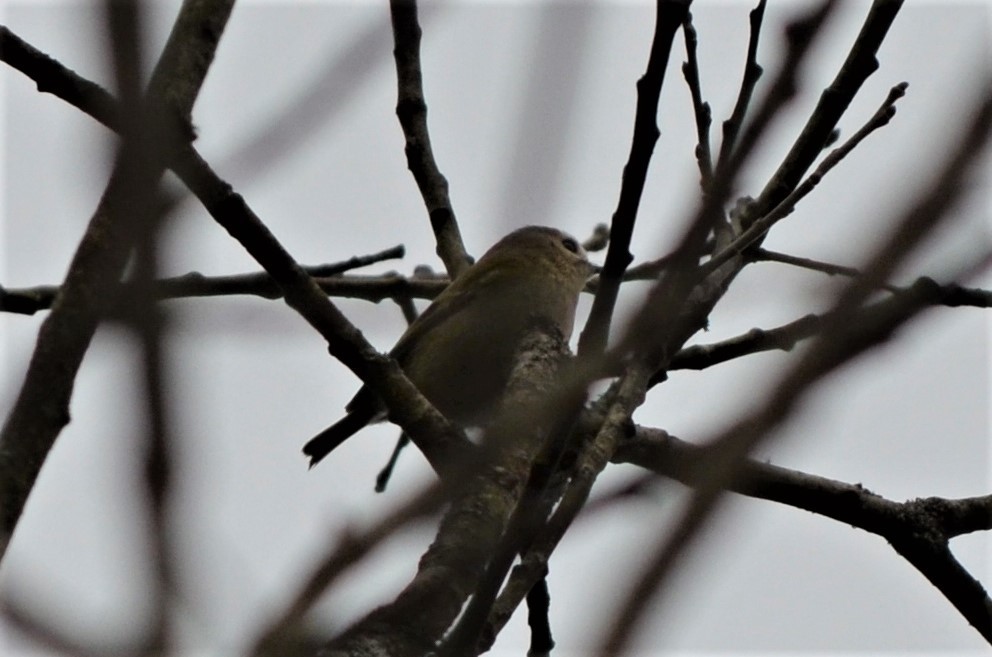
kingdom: Animalia
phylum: Chordata
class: Aves
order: Passeriformes
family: Regulidae
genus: Regulus
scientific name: Regulus regulus
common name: Goldcrest
